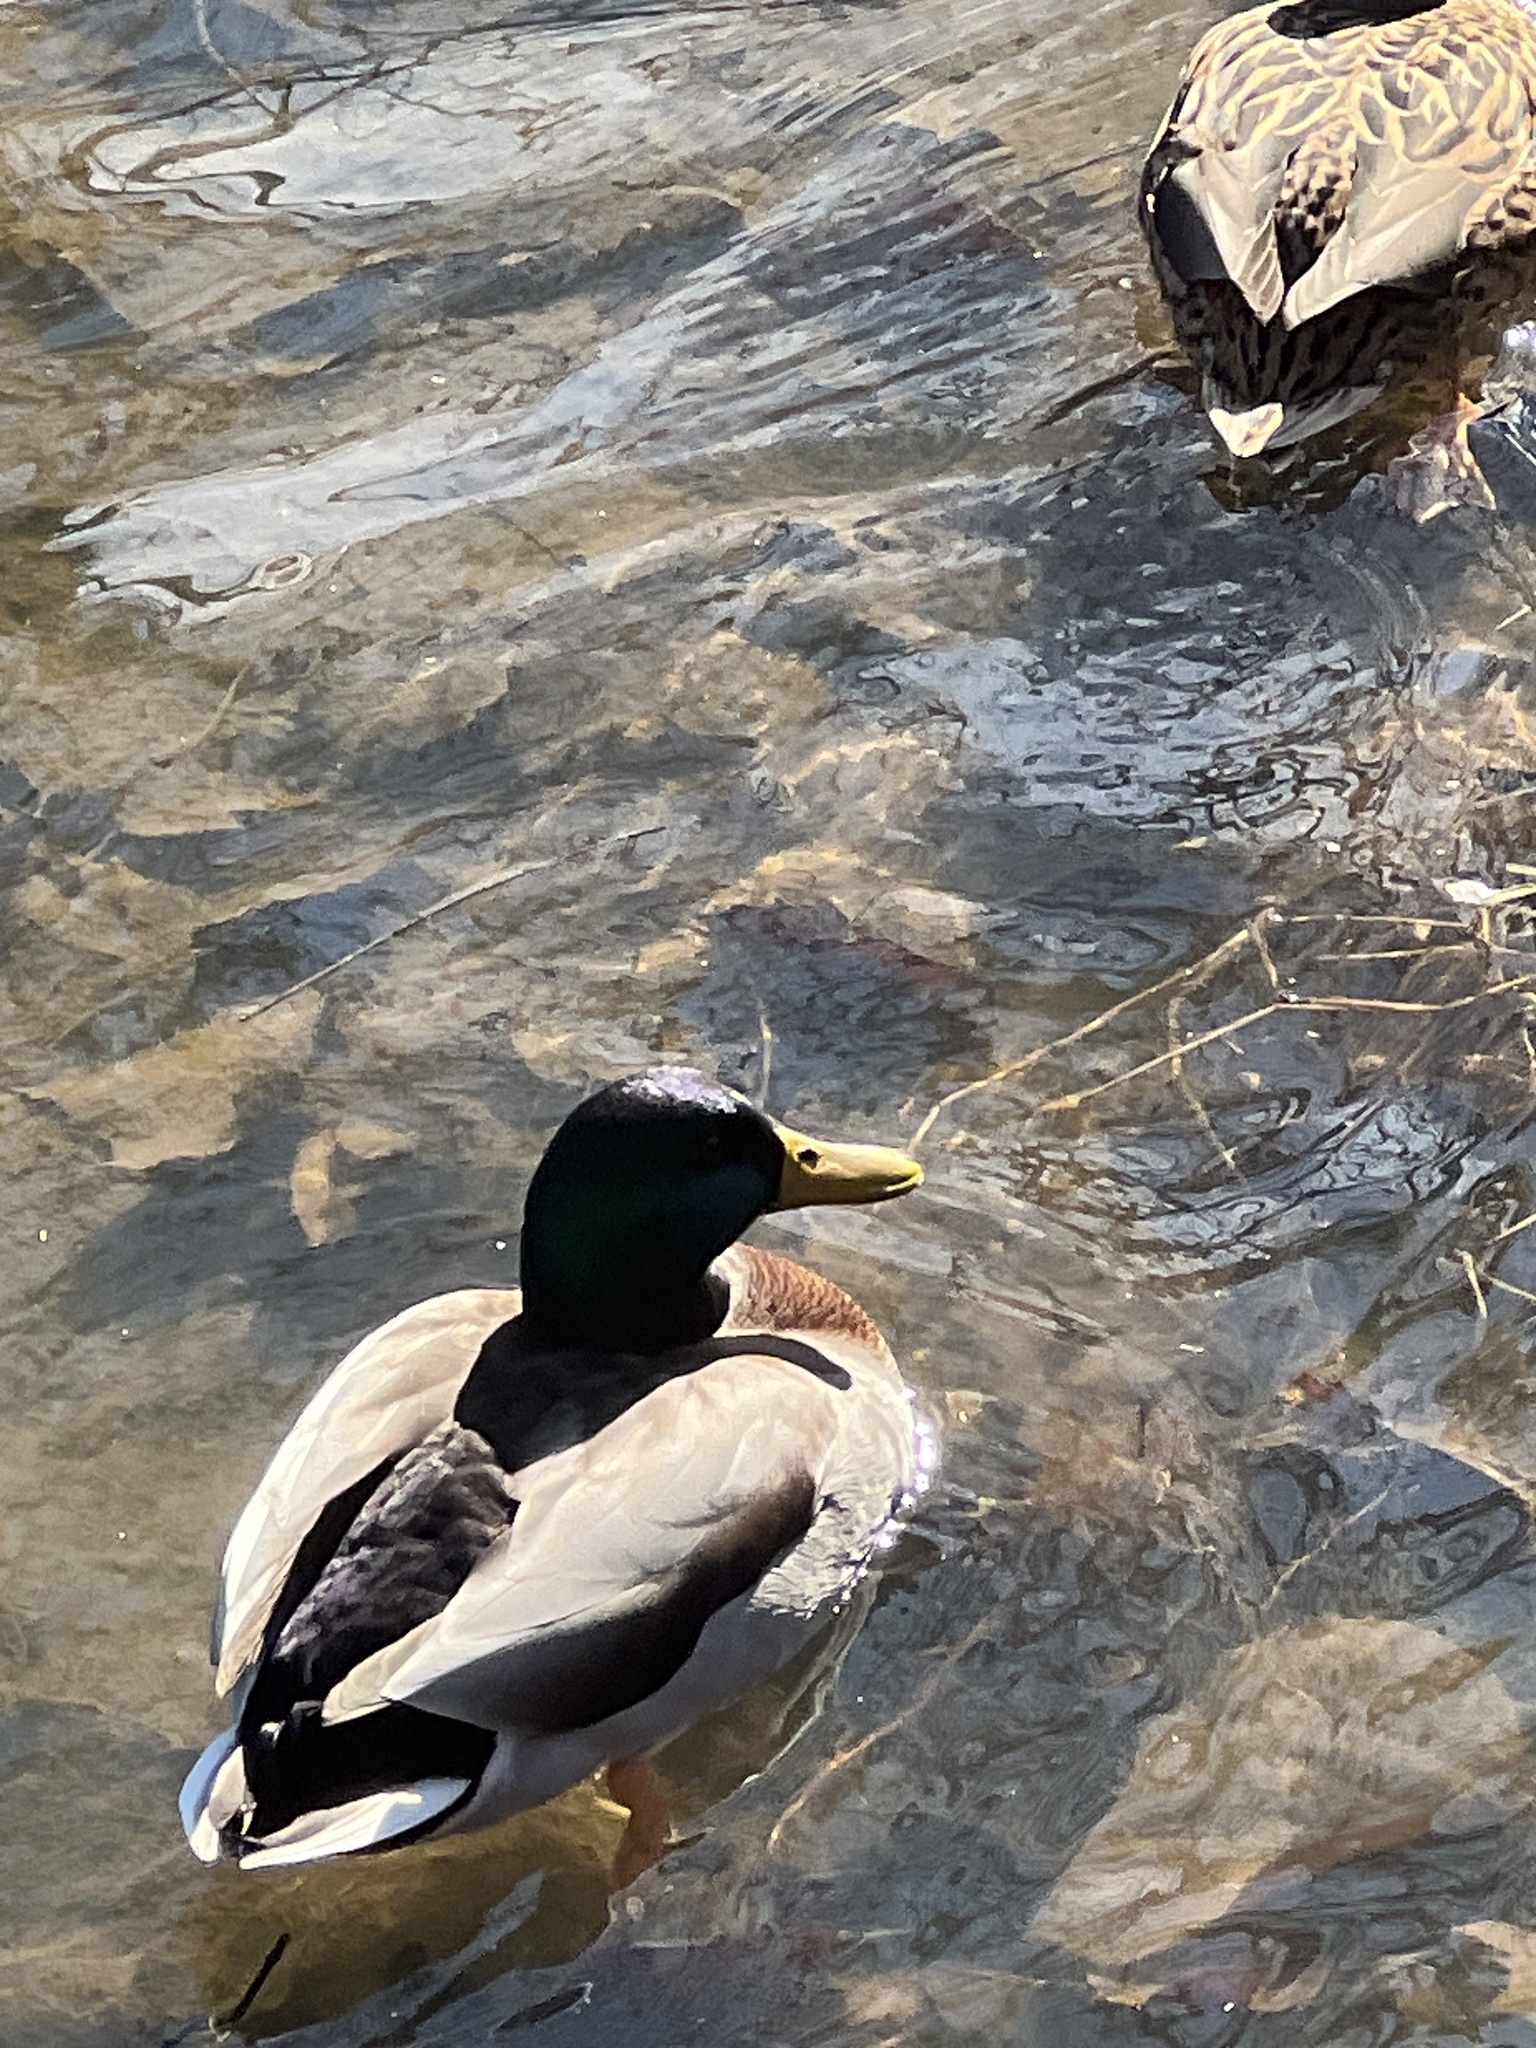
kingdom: Animalia
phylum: Chordata
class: Aves
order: Anseriformes
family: Anatidae
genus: Anas
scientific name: Anas platyrhynchos
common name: Mallard
